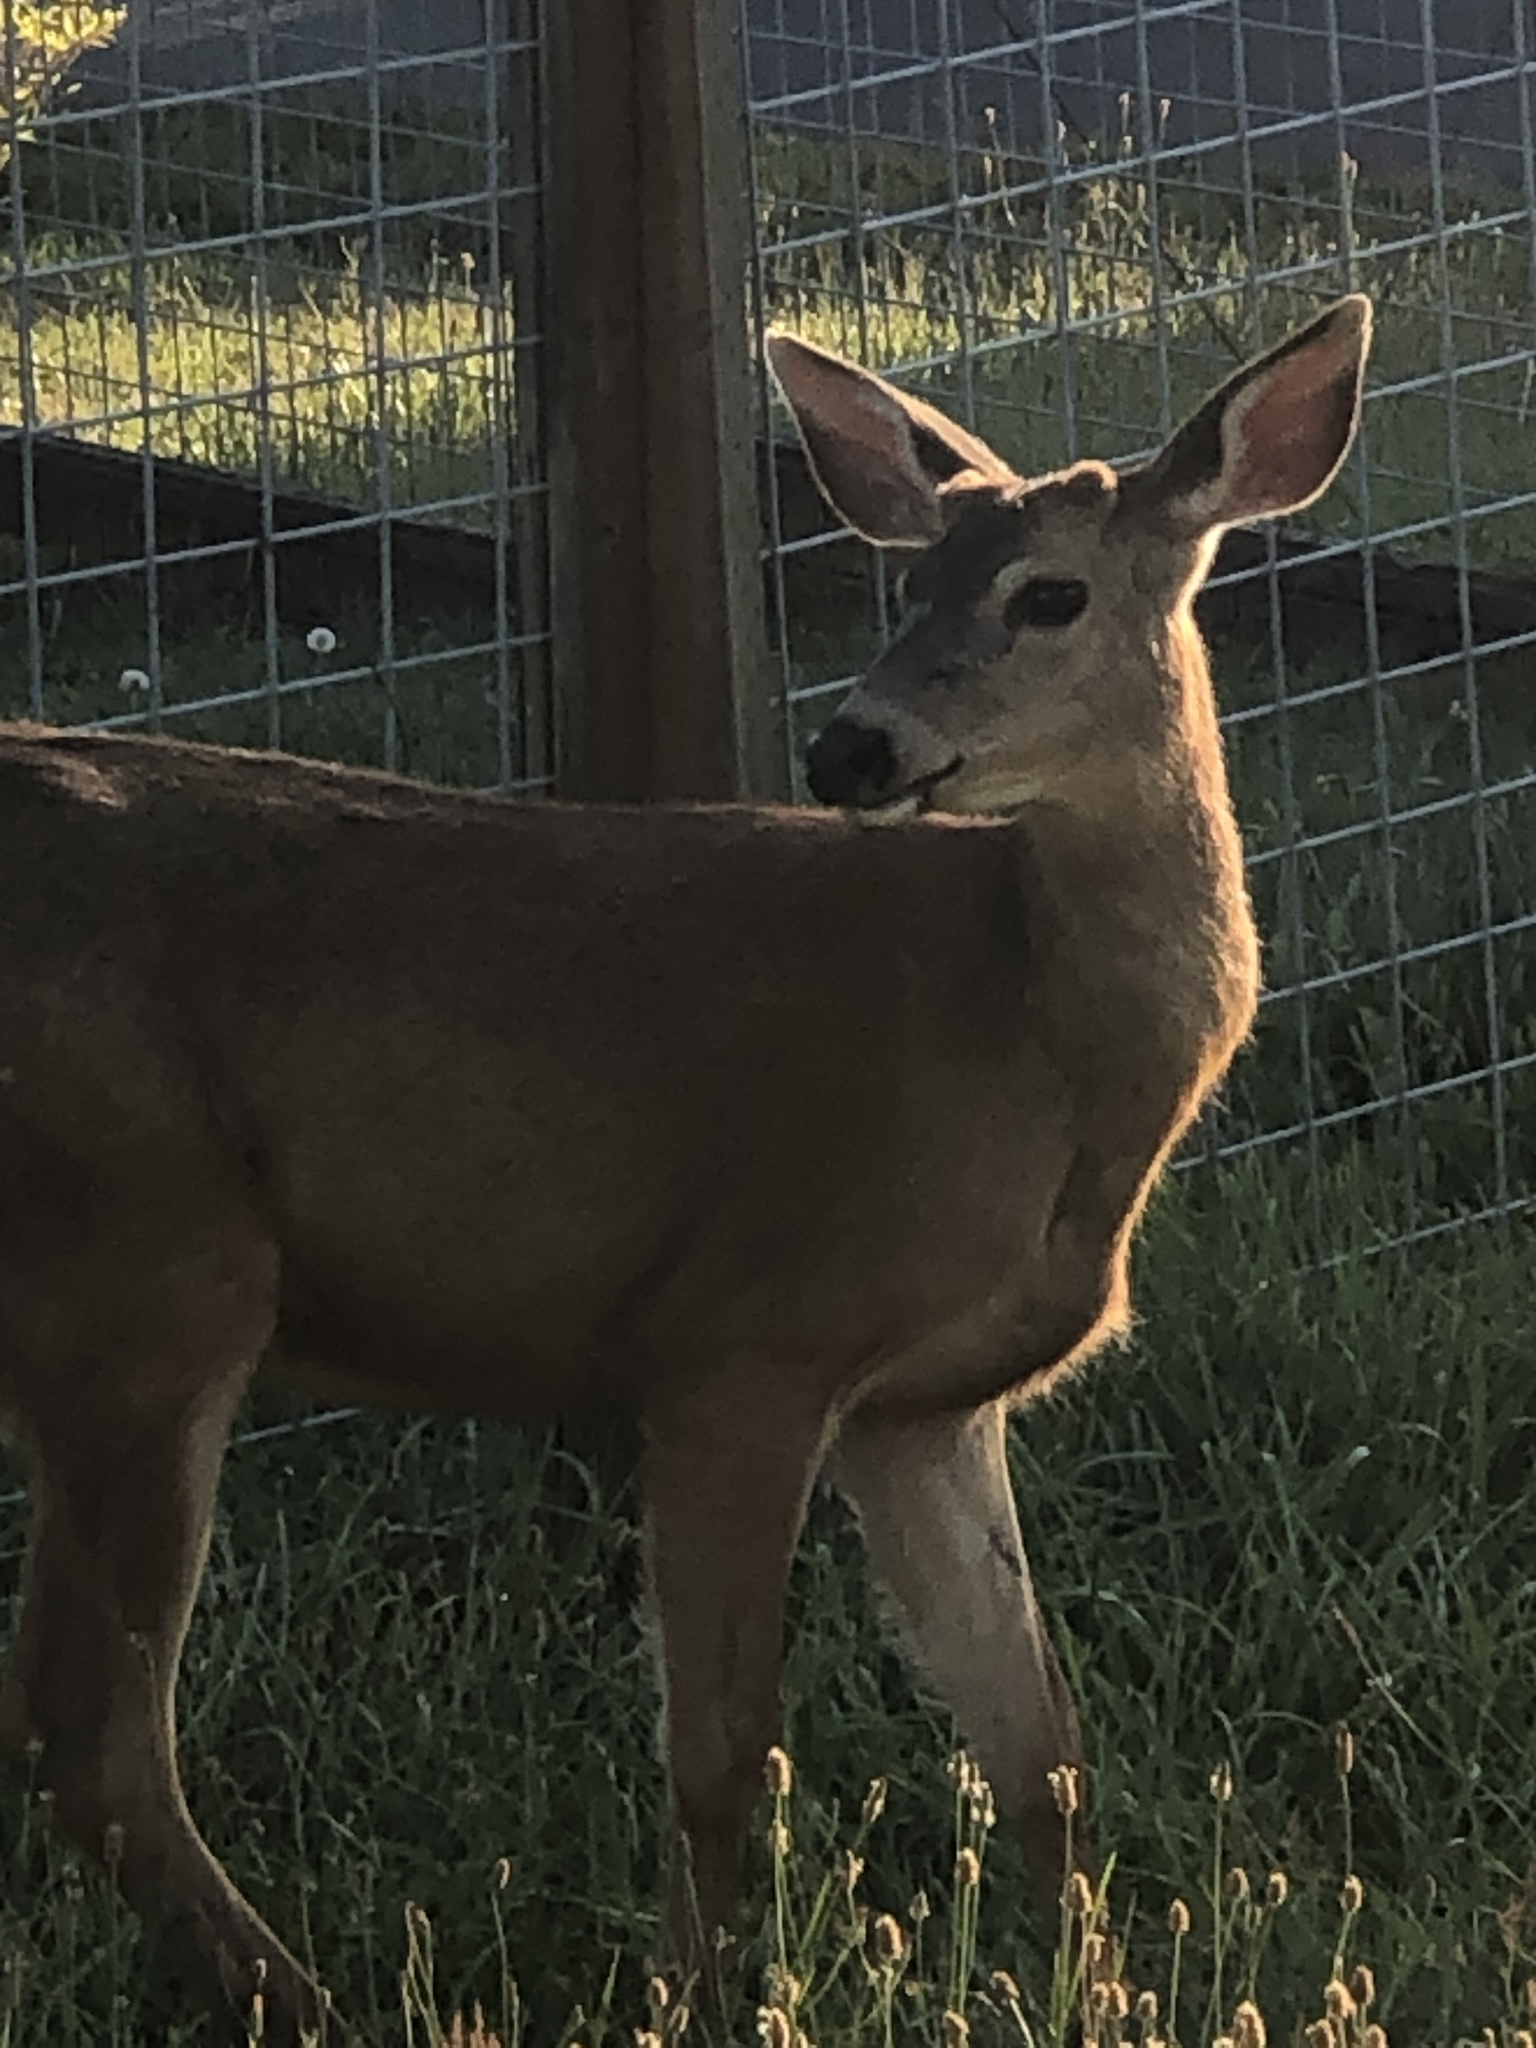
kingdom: Animalia
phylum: Chordata
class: Mammalia
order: Artiodactyla
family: Cervidae
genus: Odocoileus
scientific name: Odocoileus hemionus
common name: Mule deer
